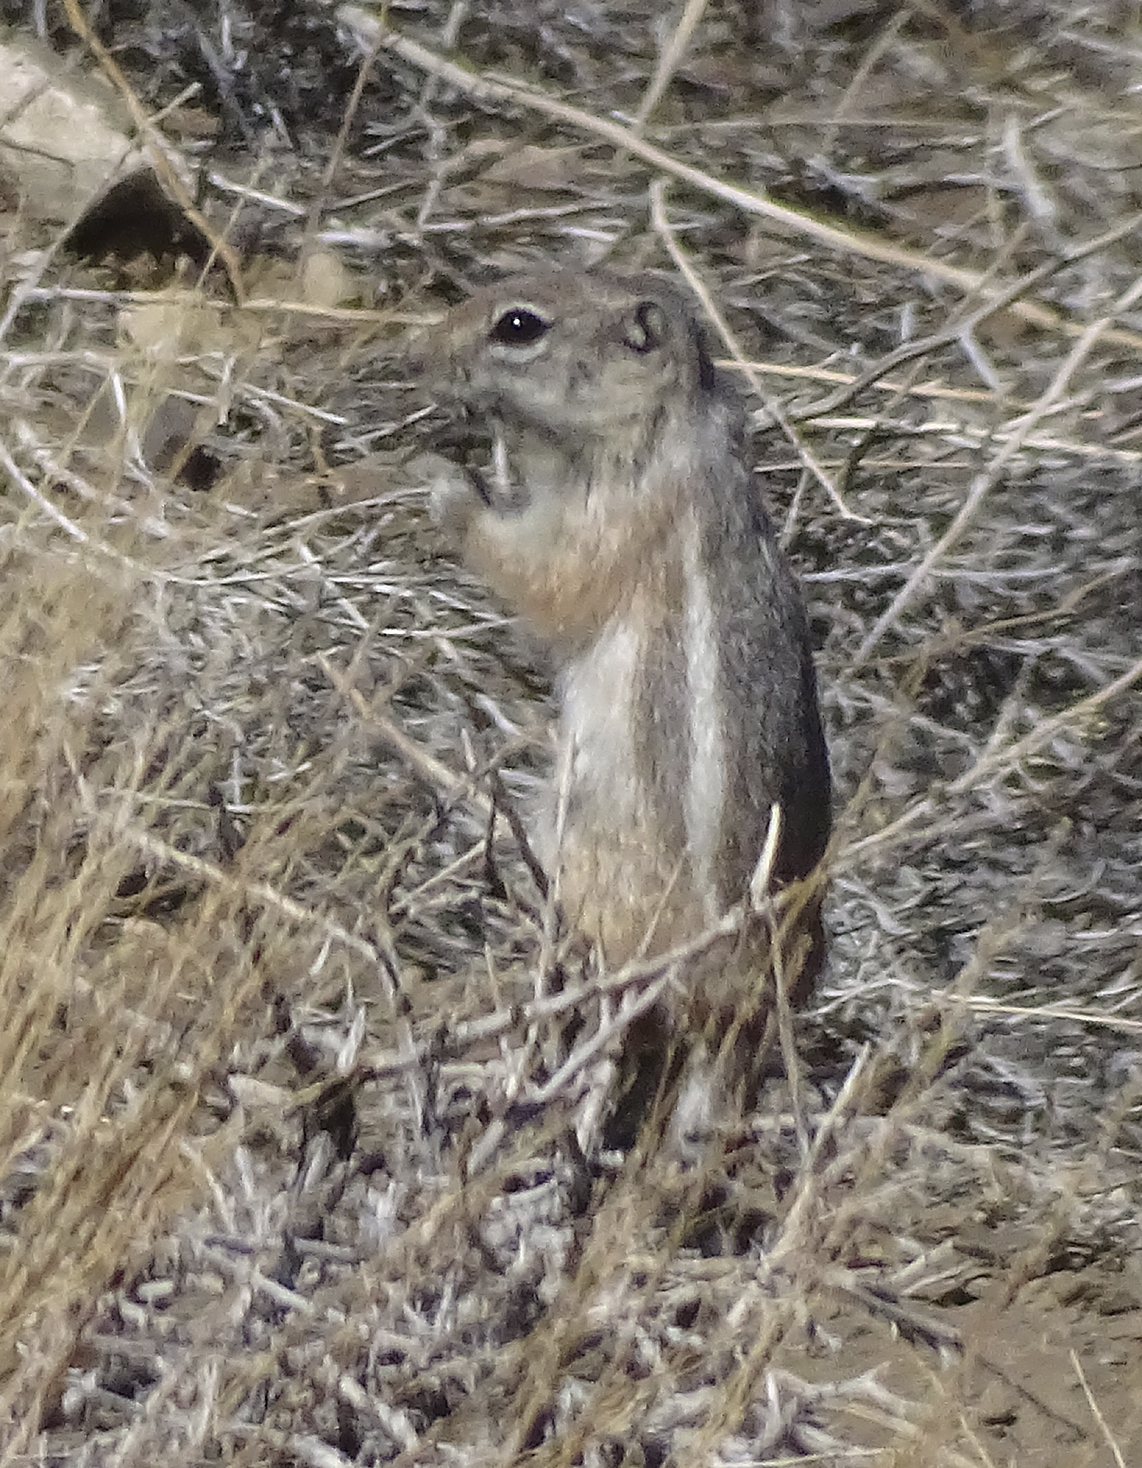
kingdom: Animalia
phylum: Chordata
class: Mammalia
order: Rodentia
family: Sciuridae
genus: Ammospermophilus
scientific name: Ammospermophilus leucurus
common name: White-tailed antelope squirrel
